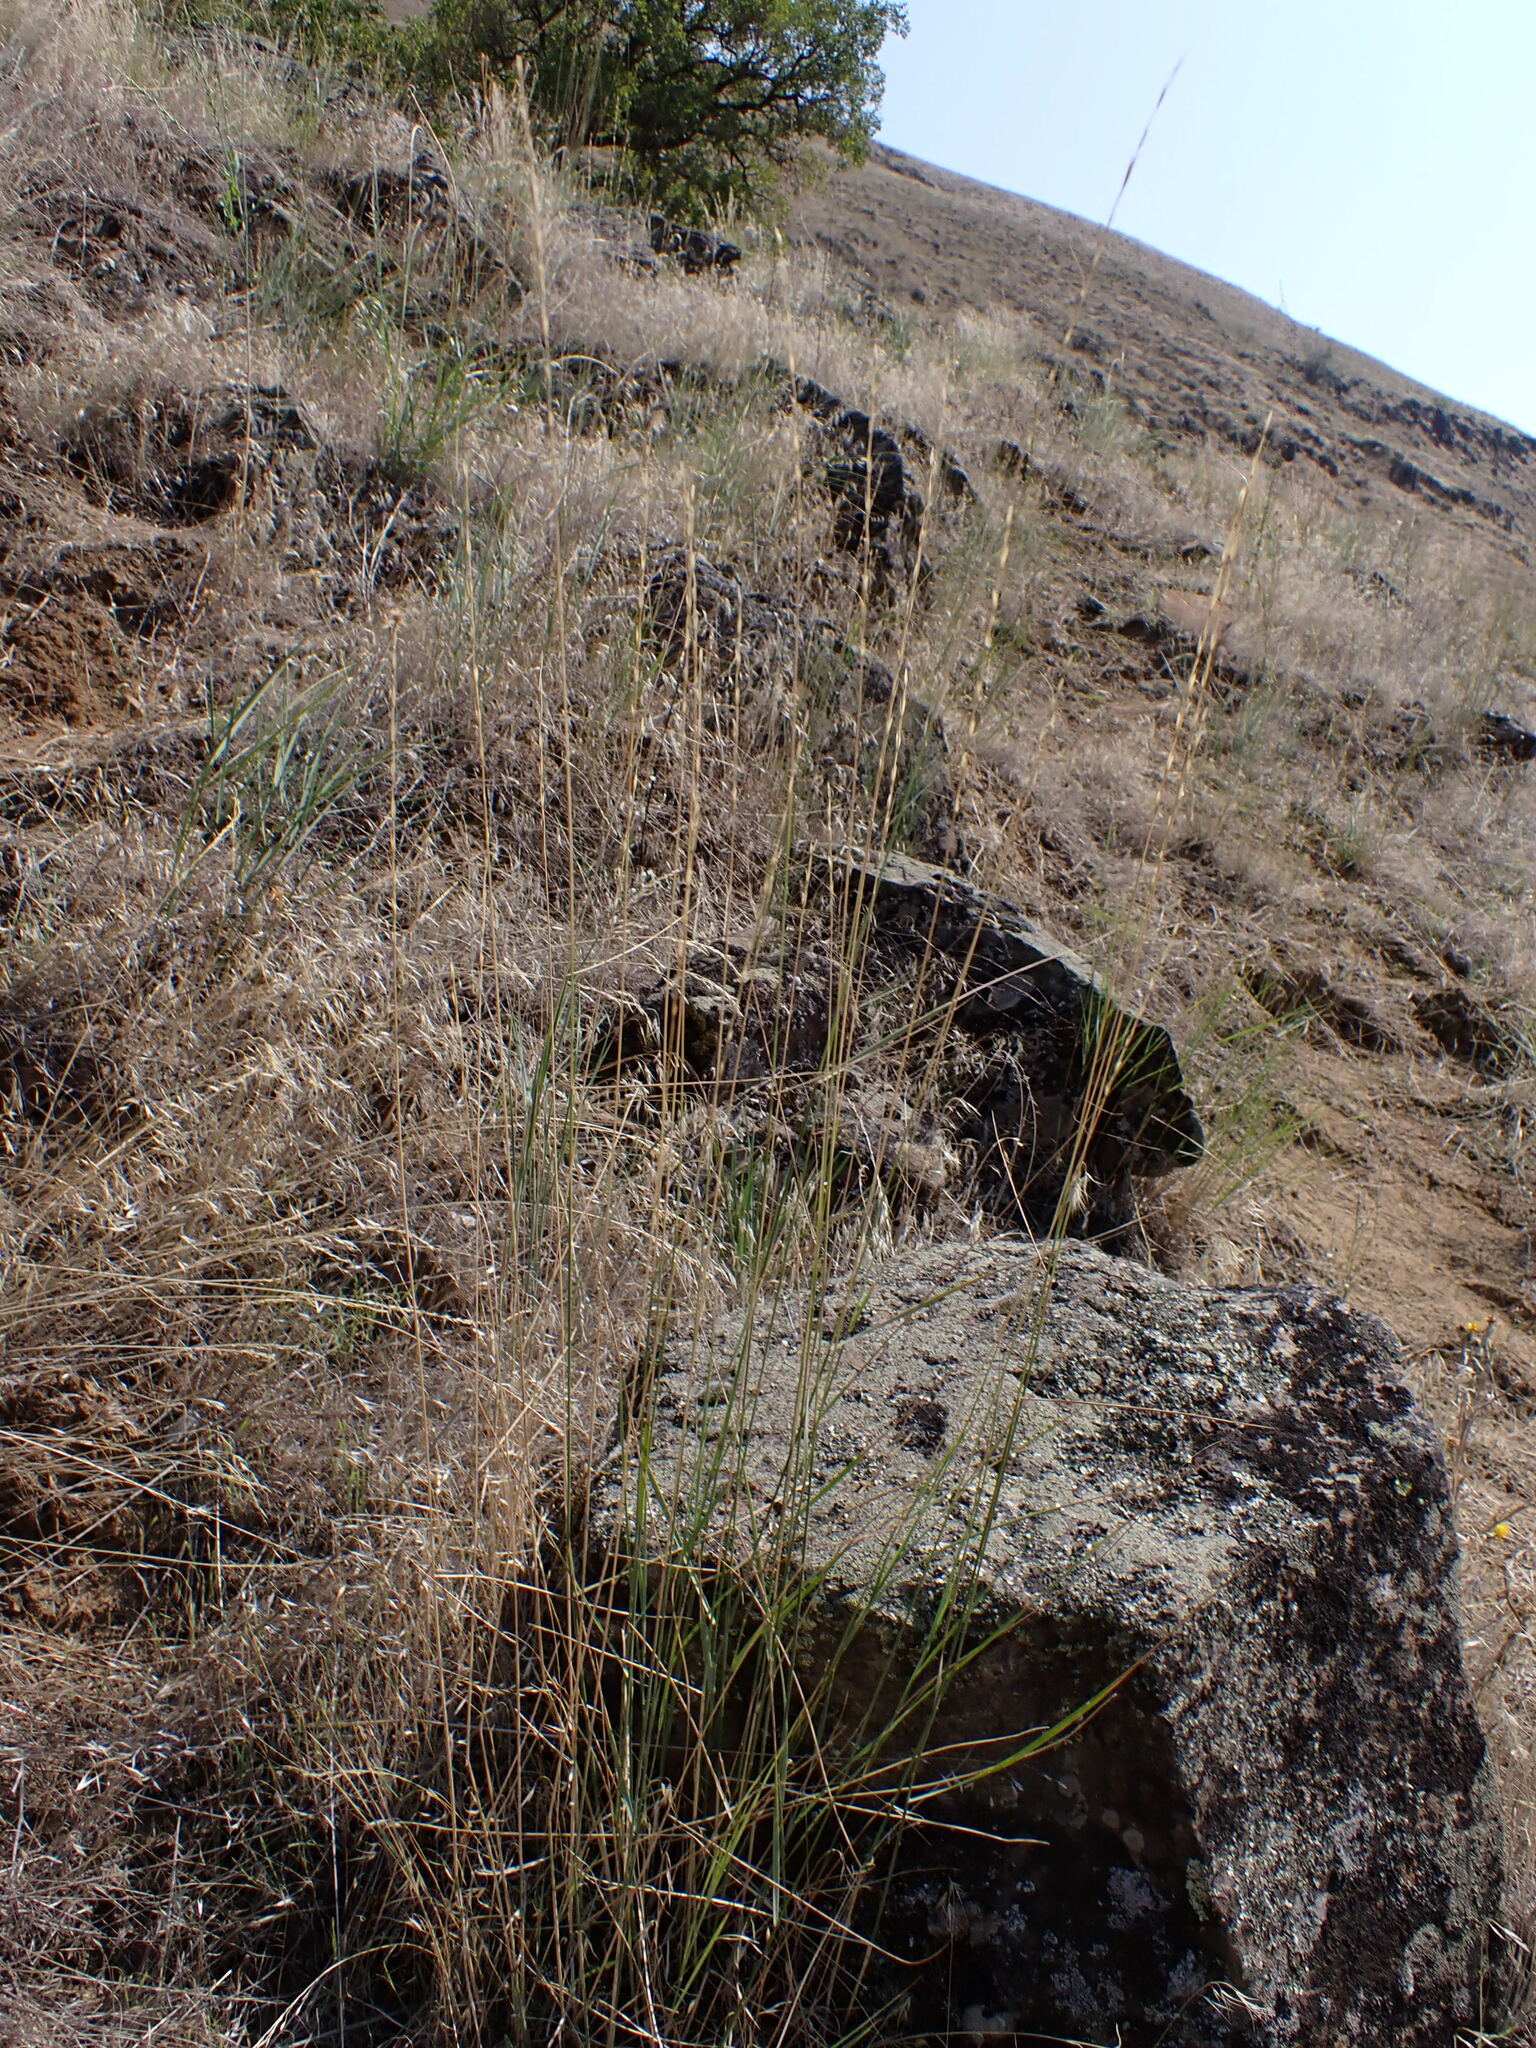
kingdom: Plantae
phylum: Tracheophyta
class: Liliopsida
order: Poales
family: Poaceae
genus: Pseudoroegneria
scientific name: Pseudoroegneria spicata
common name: Bluebunch wheatgrass
